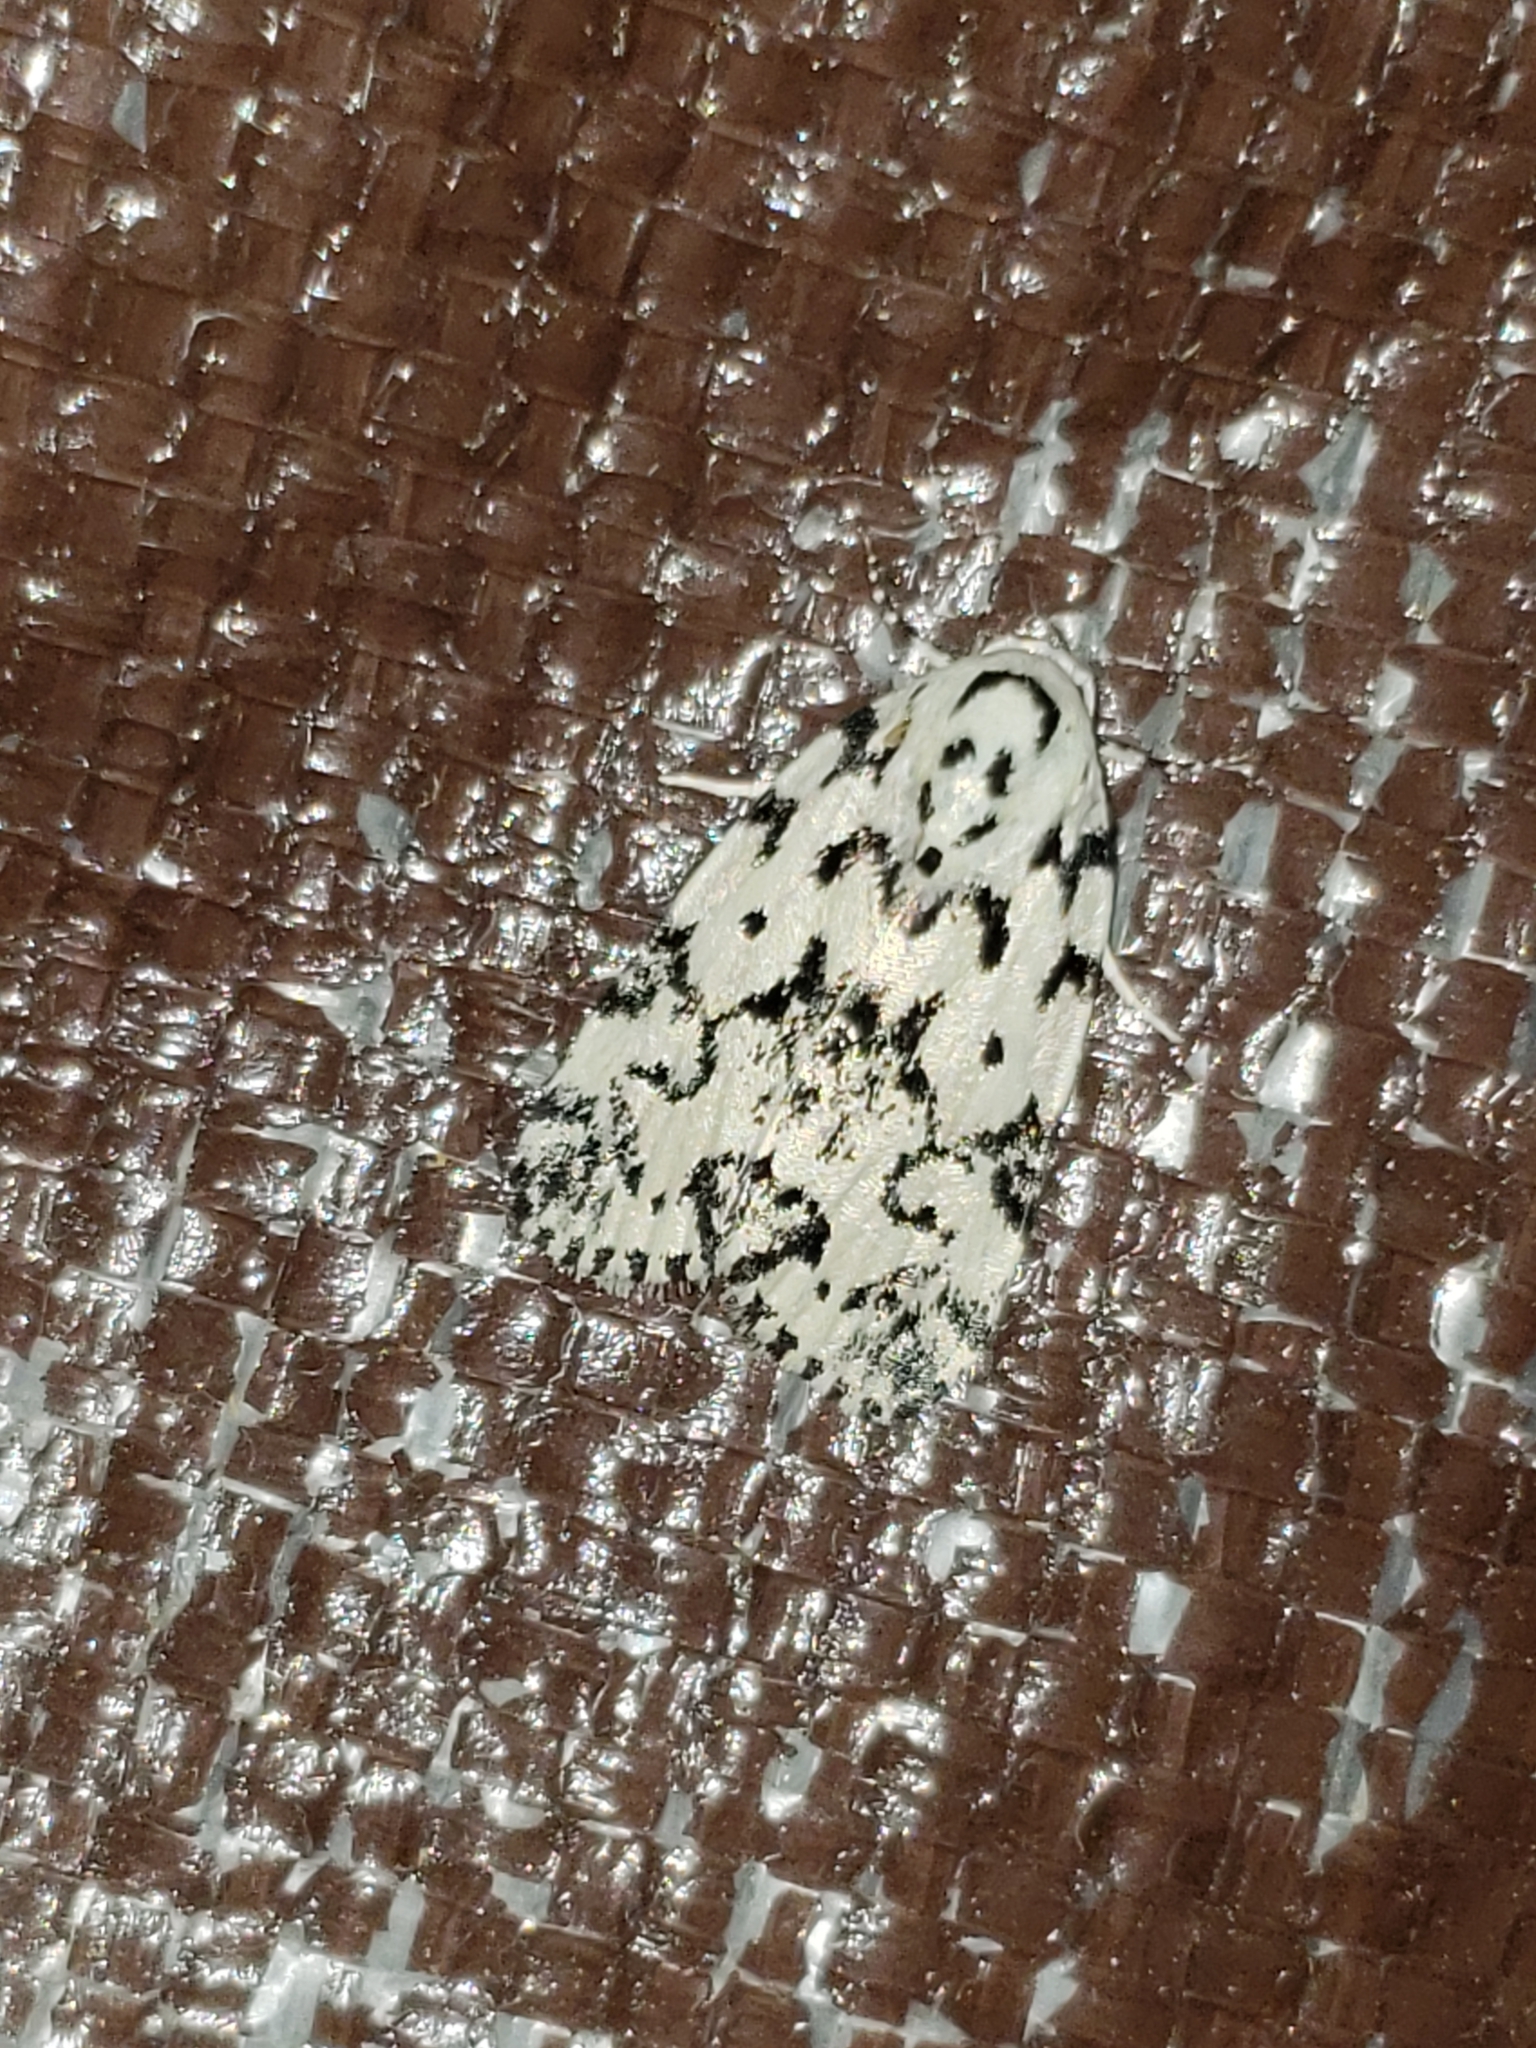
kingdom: Animalia
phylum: Arthropoda
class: Insecta
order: Lepidoptera
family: Noctuidae
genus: Polygrammate
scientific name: Polygrammate hebraeicum
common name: Hebrew moth
